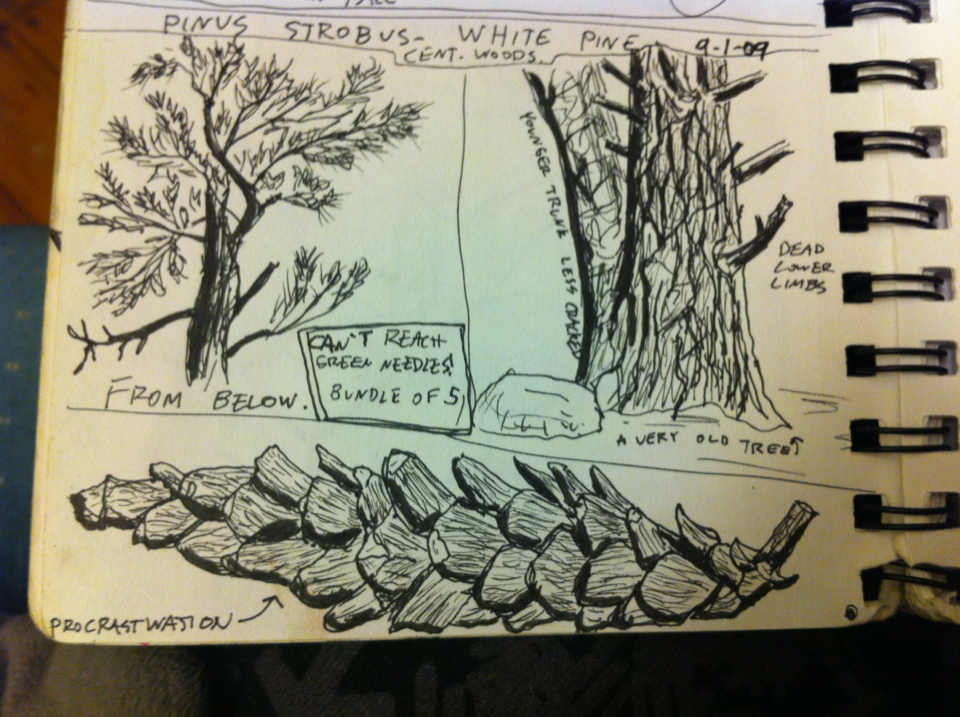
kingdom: Plantae
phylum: Tracheophyta
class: Pinopsida
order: Pinales
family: Pinaceae
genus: Pinus
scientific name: Pinus strobus
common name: Weymouth pine
